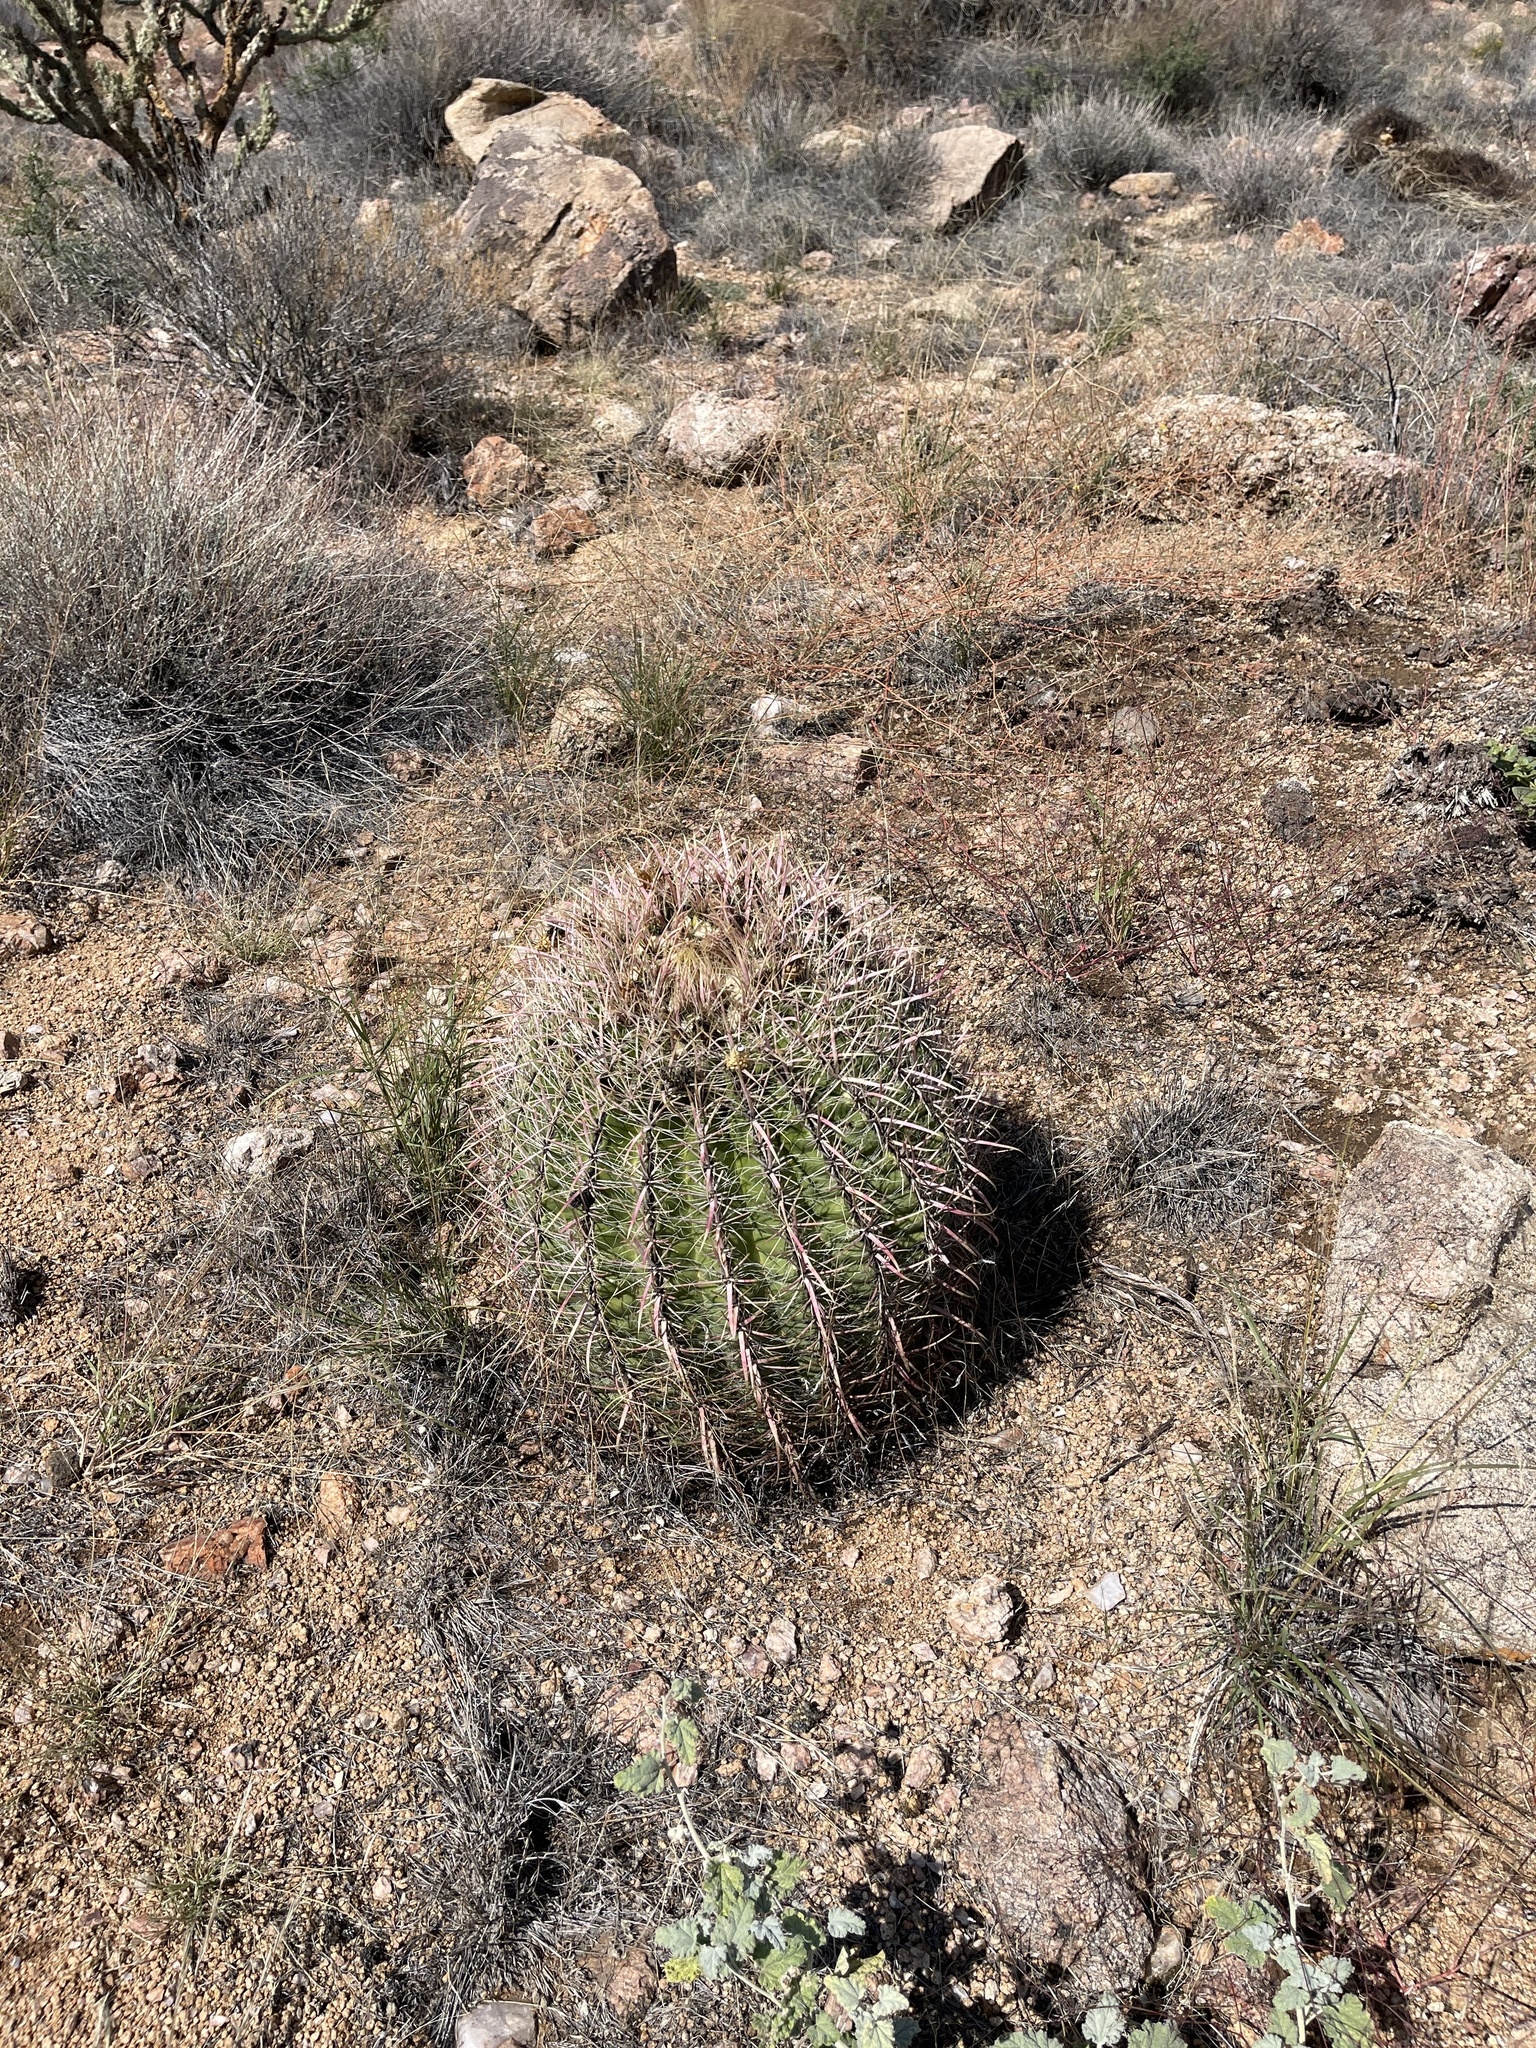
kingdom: Plantae
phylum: Tracheophyta
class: Magnoliopsida
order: Caryophyllales
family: Cactaceae
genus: Ferocactus
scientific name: Ferocactus cylindraceus
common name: California barrel cactus
